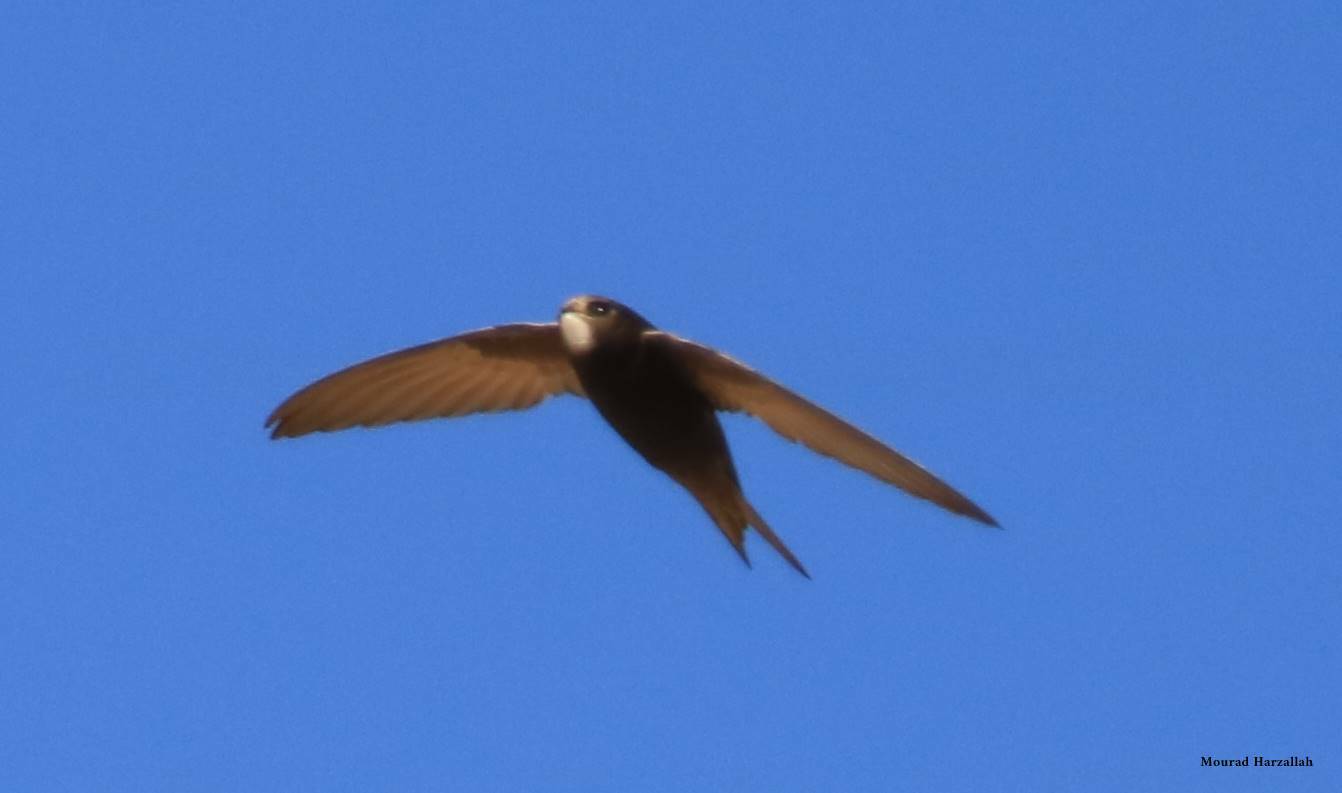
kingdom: Animalia
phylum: Chordata
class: Aves
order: Apodiformes
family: Apodidae
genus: Apus
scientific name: Apus apus
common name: Common swift
